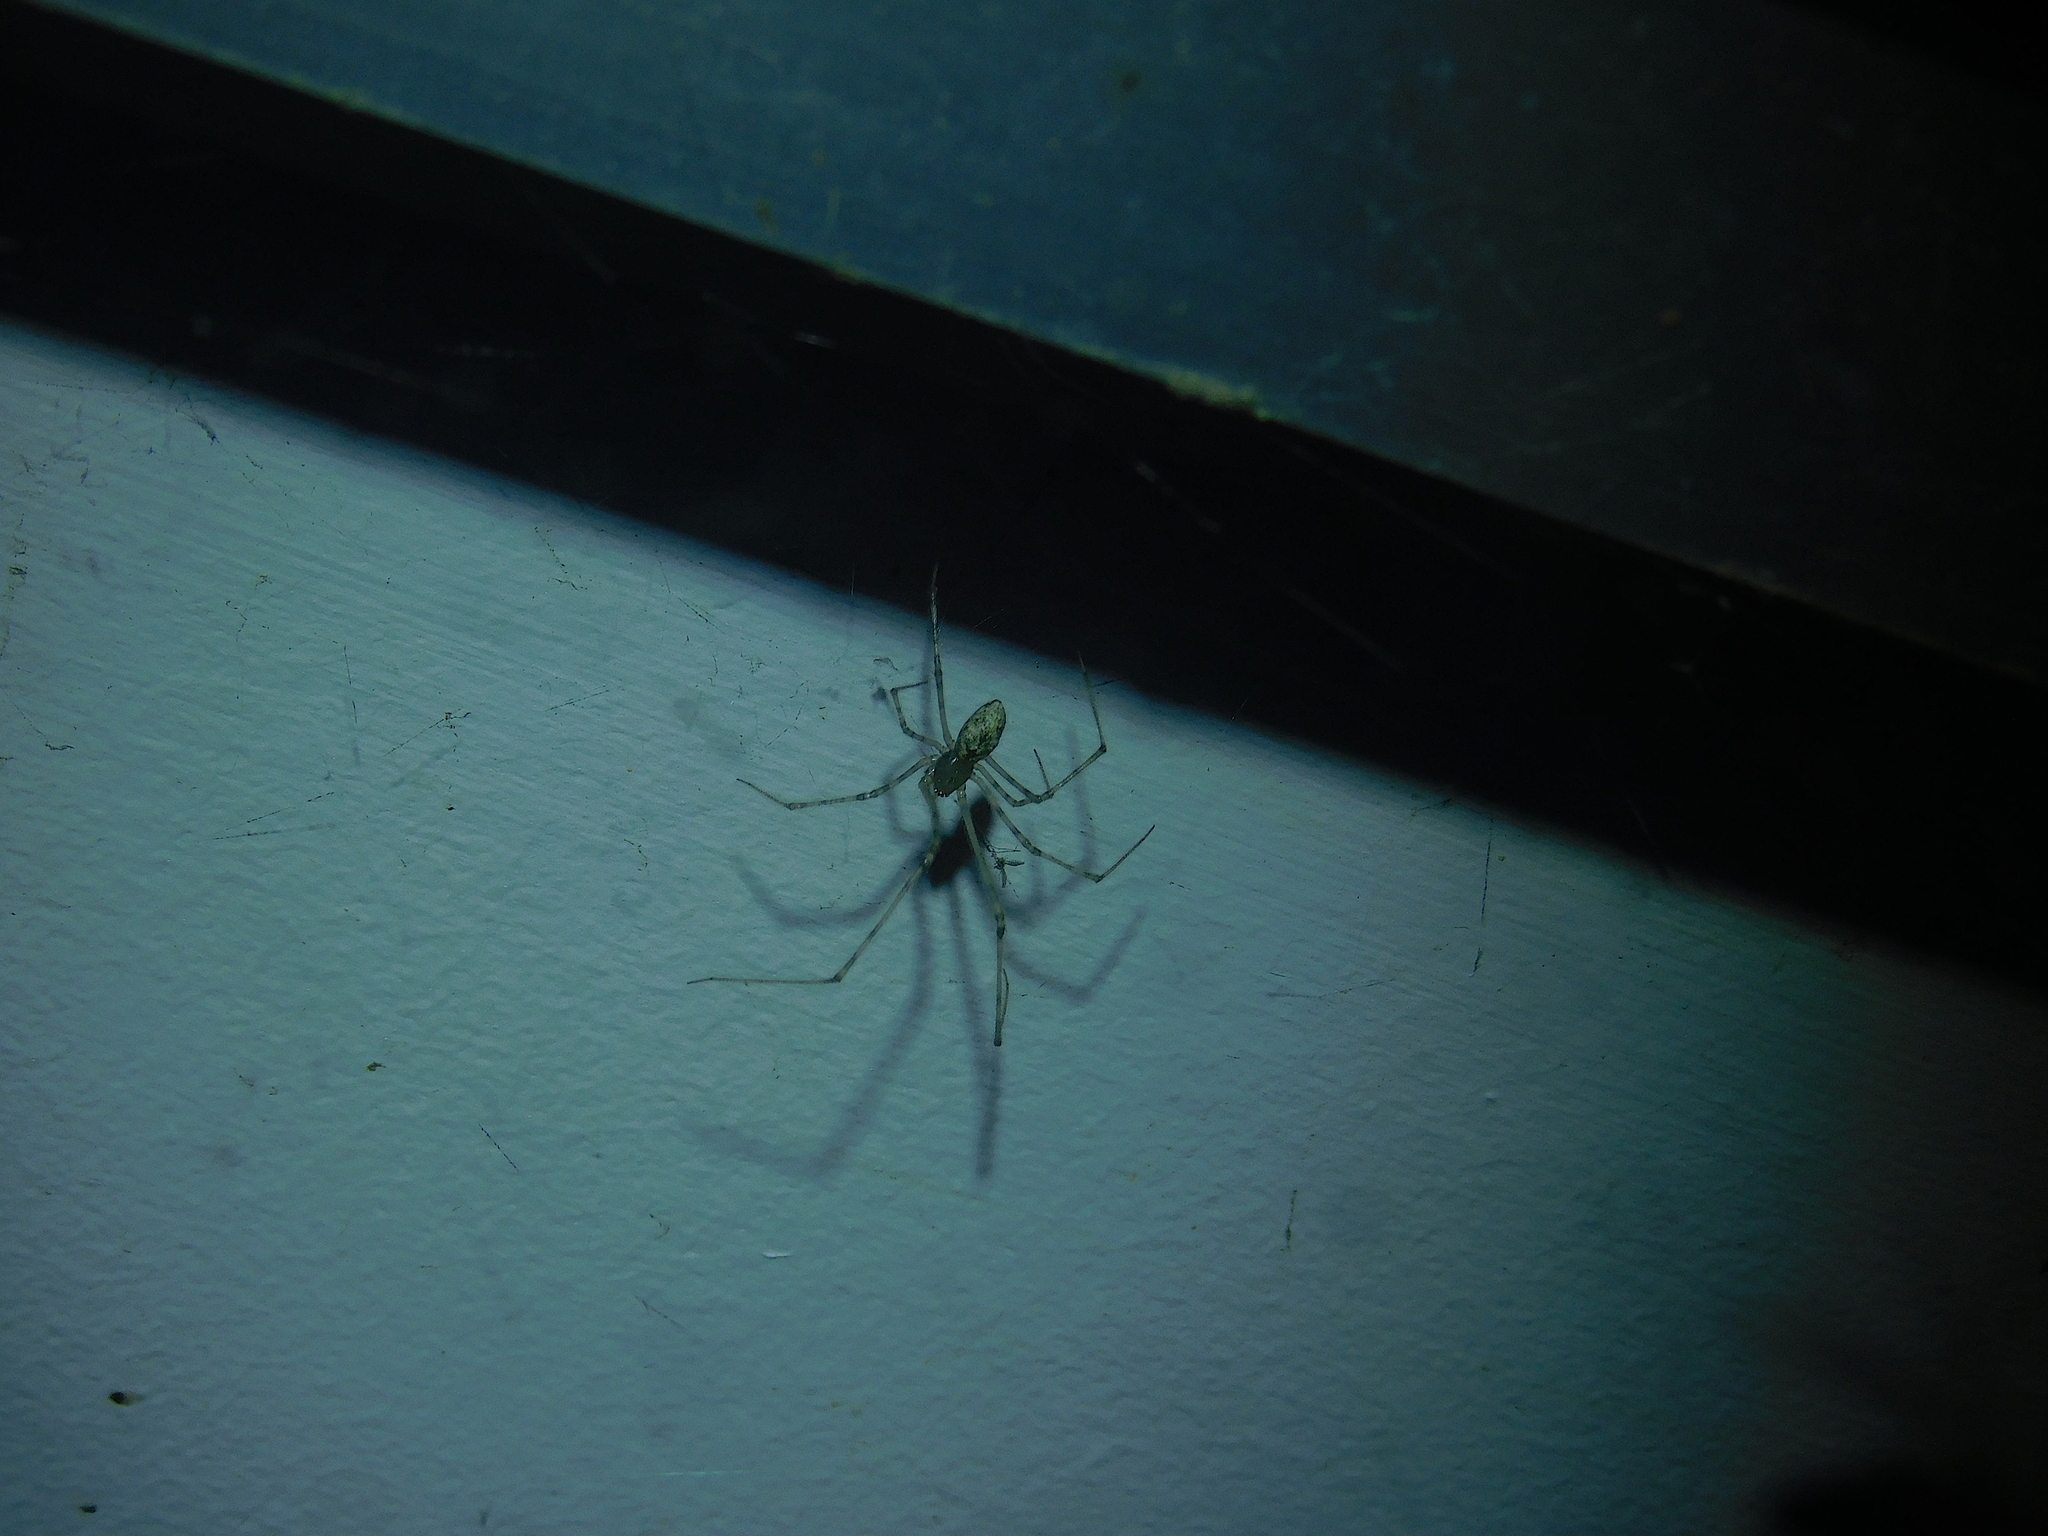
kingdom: Animalia
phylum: Arthropoda
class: Arachnida
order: Araneae
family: Theridiidae
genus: Cryptachaea
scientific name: Cryptachaea gigantipes
